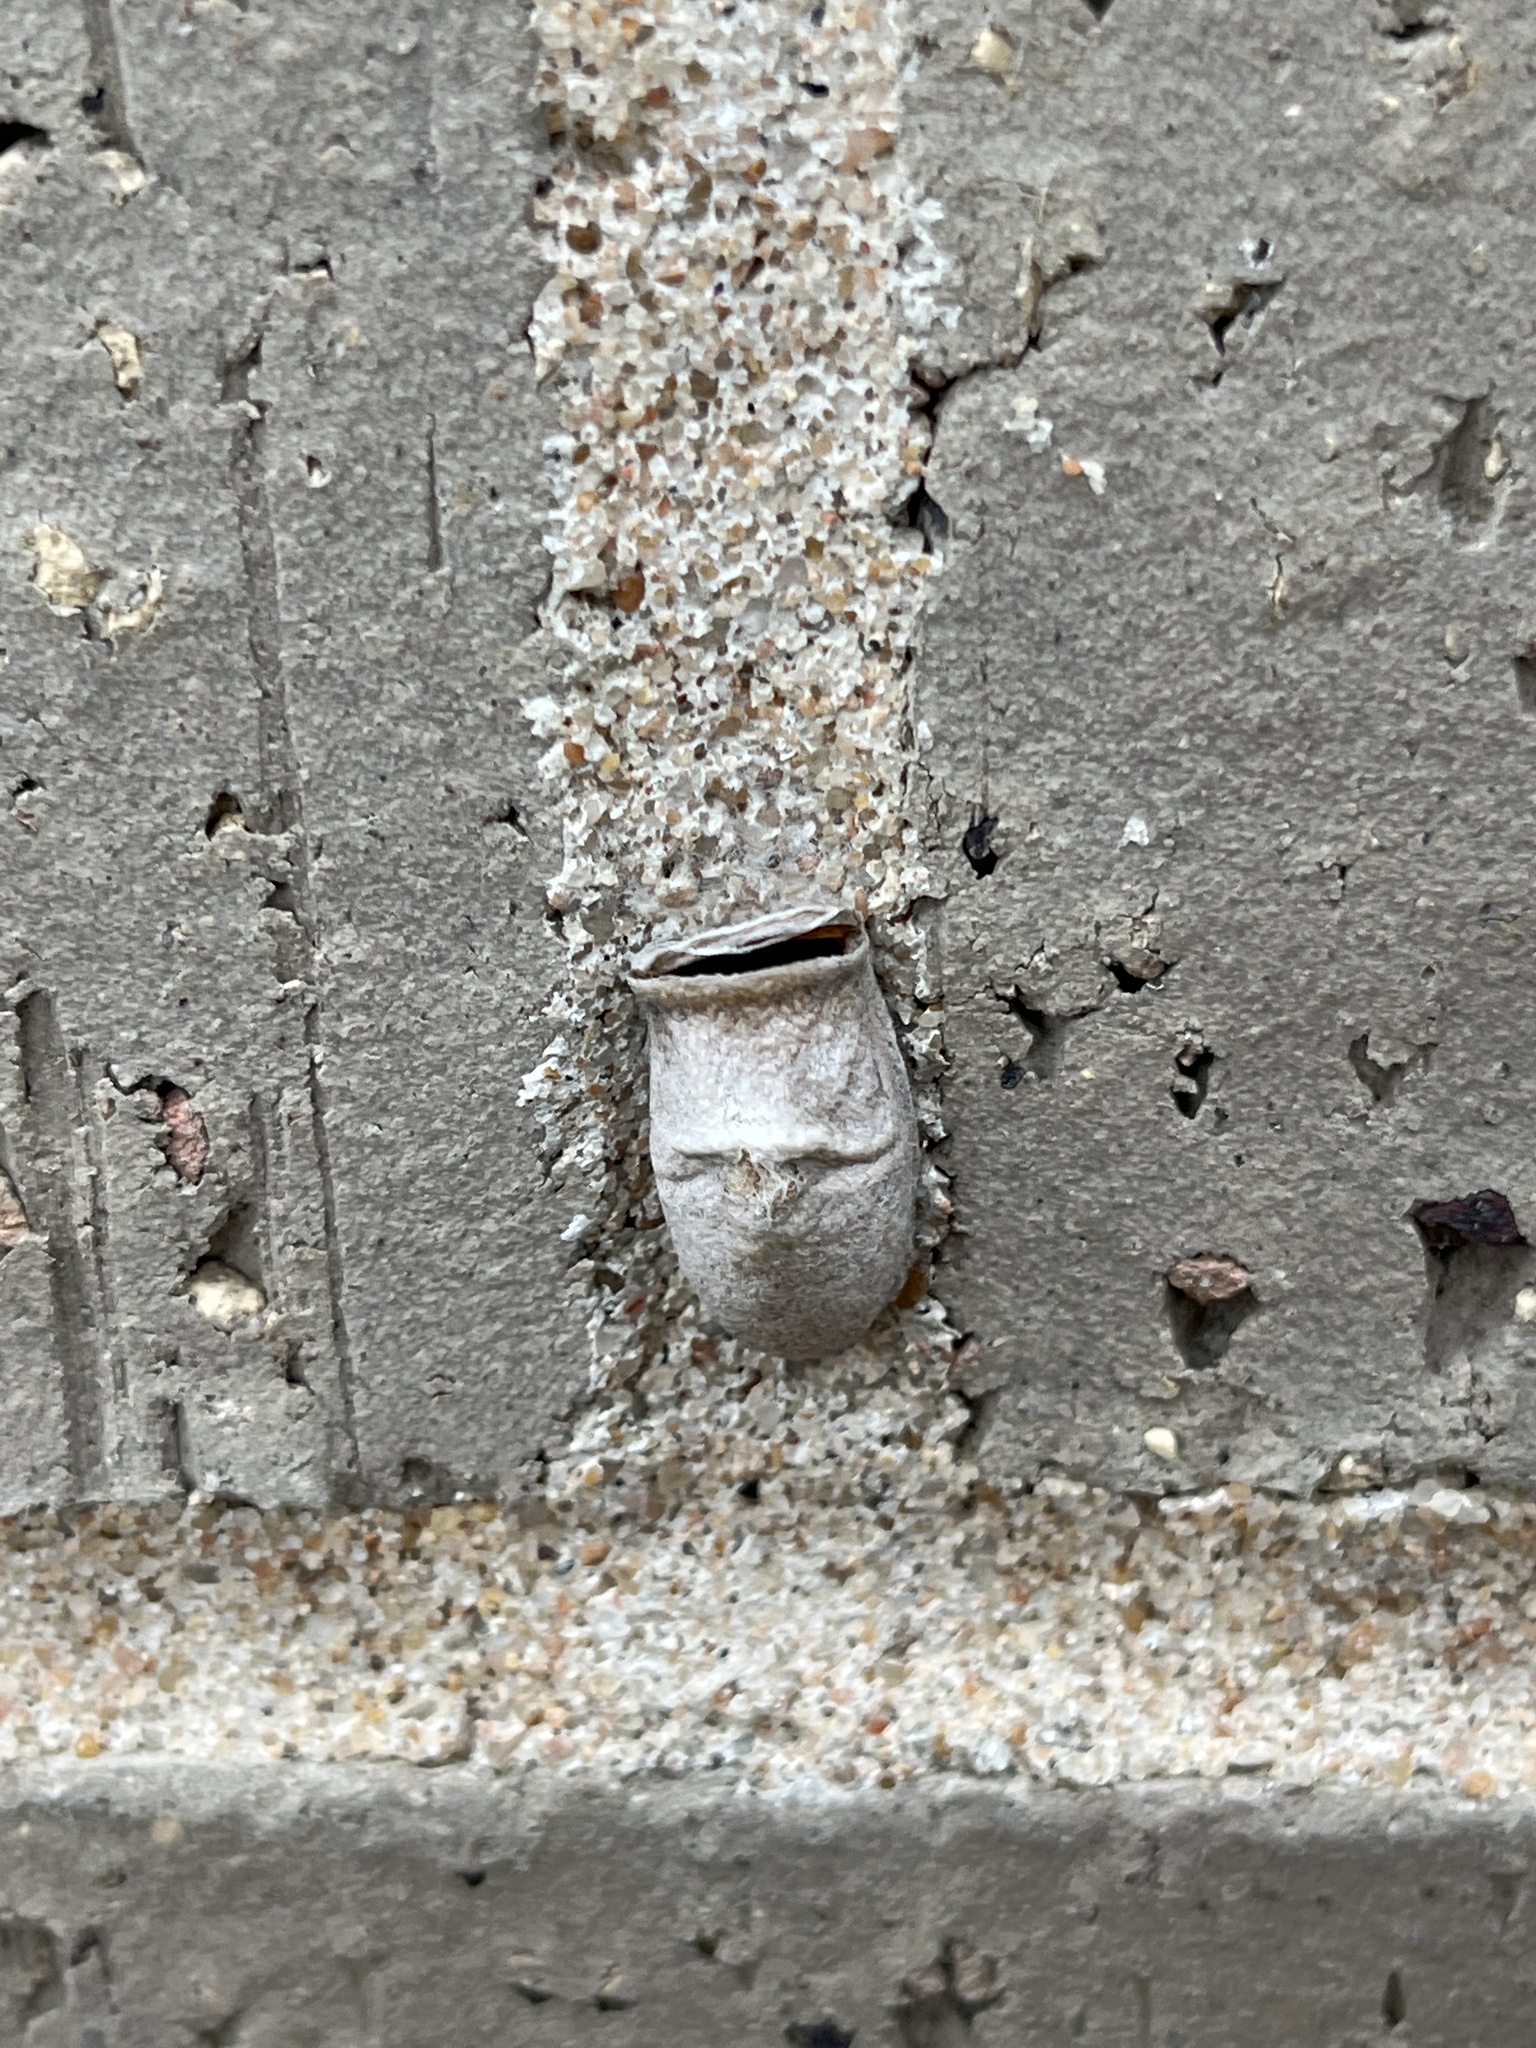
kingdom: Animalia
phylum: Arthropoda
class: Insecta
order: Lepidoptera
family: Saturniidae
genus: Antheraea
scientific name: Antheraea polyphemus
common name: Polyphemus moth
